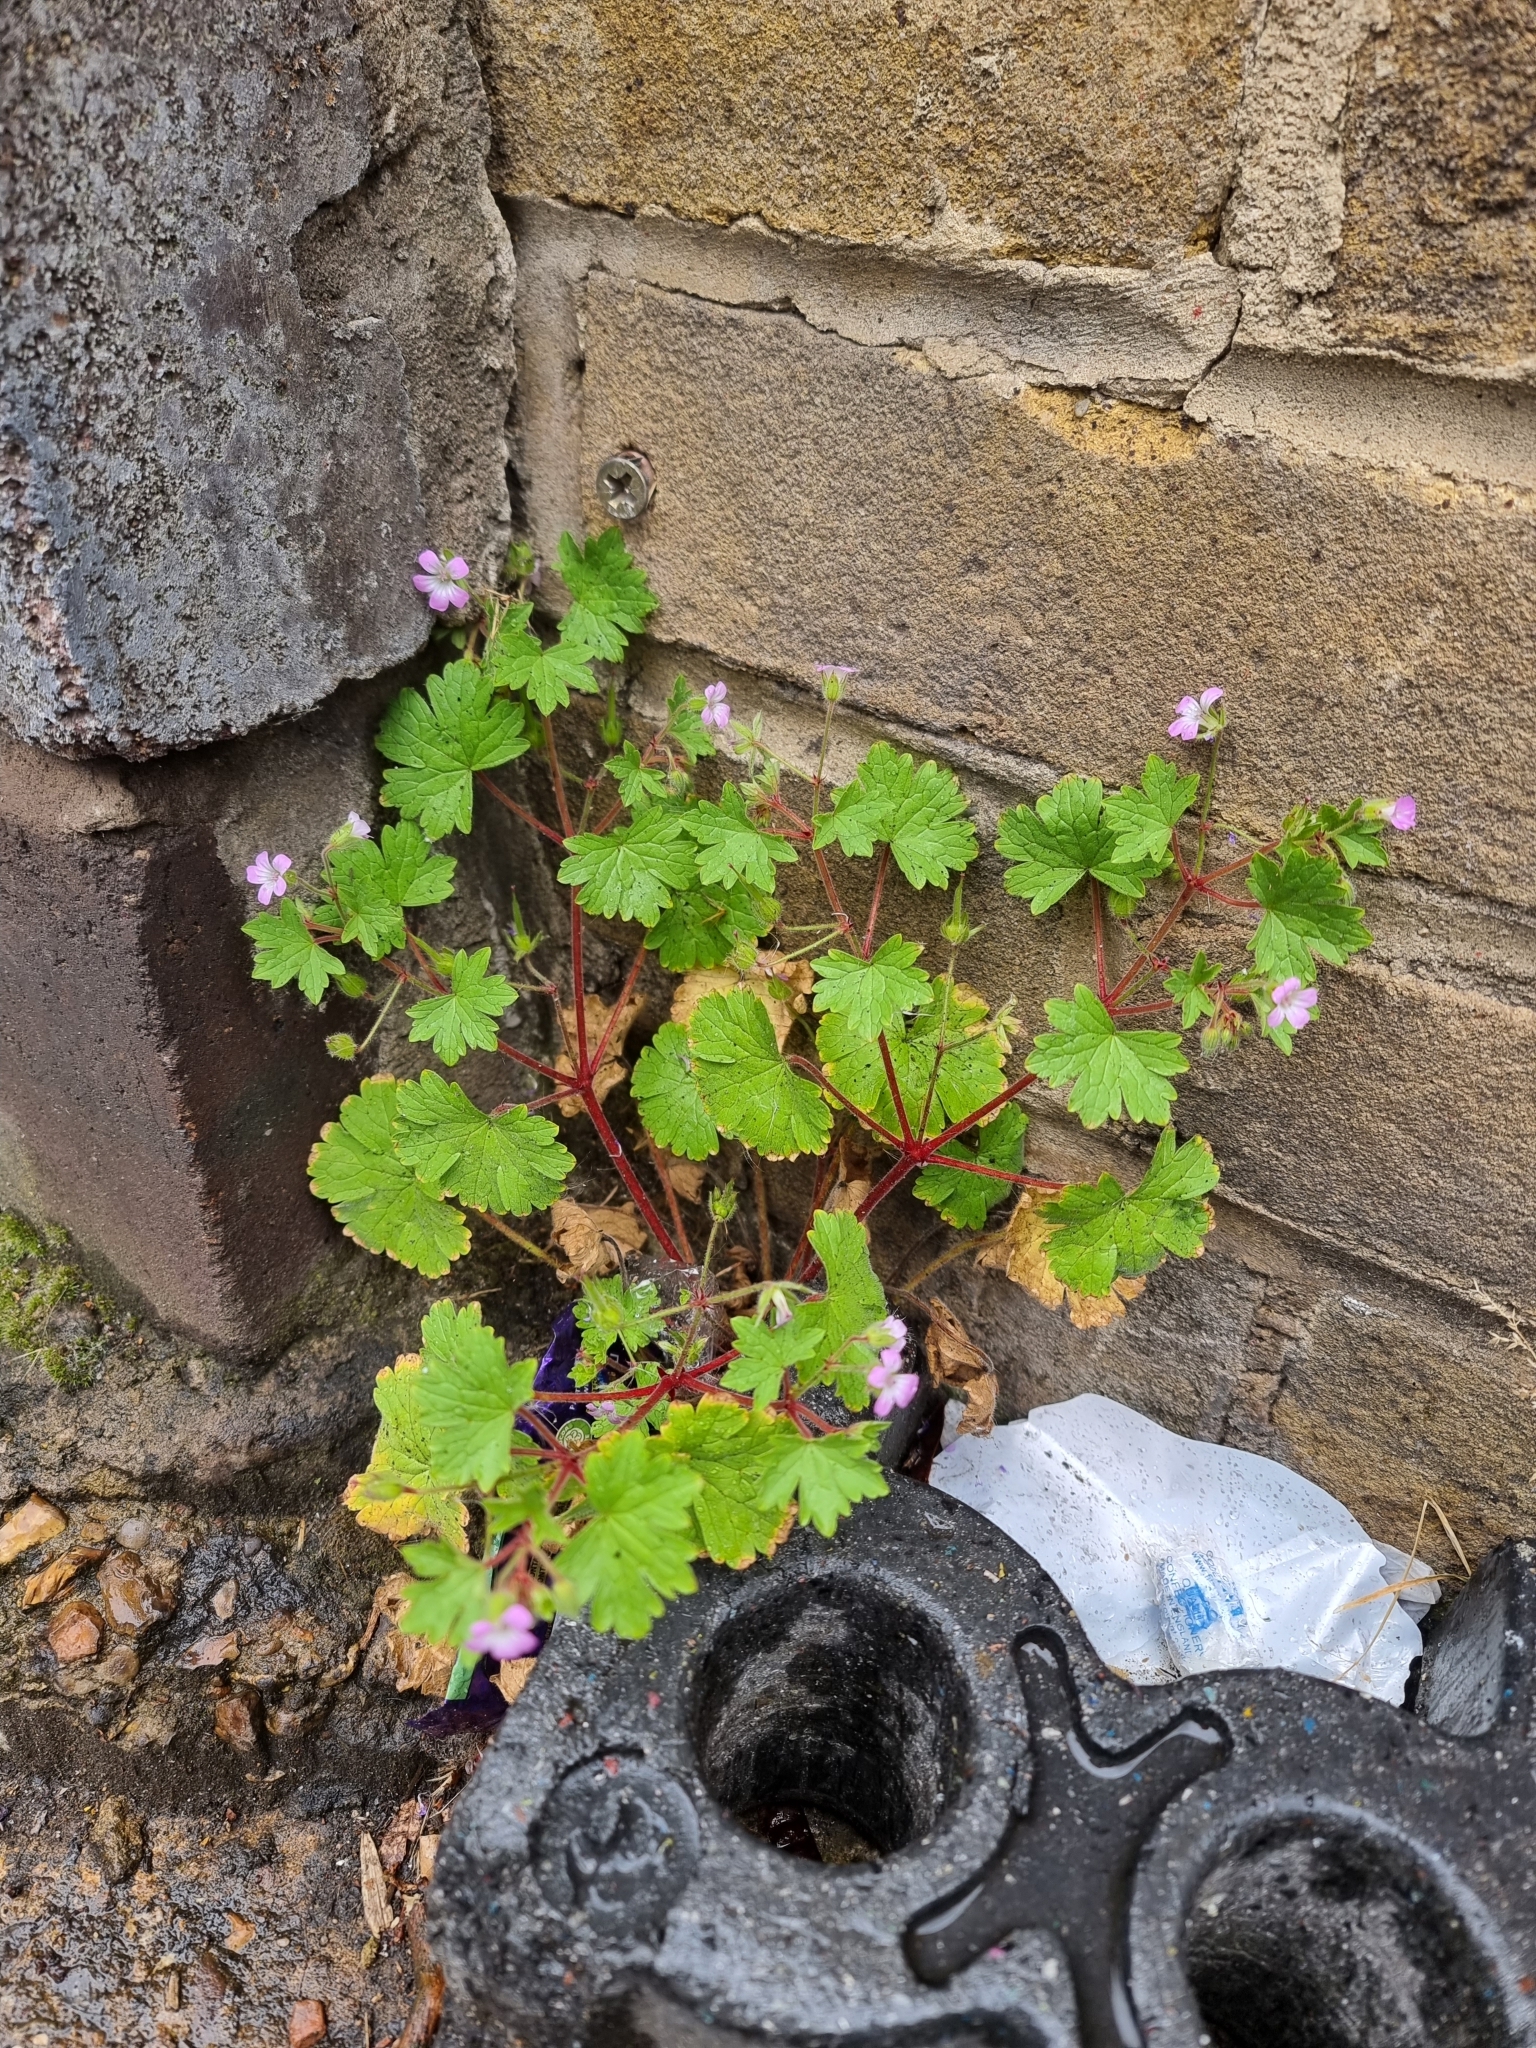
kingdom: Plantae
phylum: Tracheophyta
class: Magnoliopsida
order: Geraniales
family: Geraniaceae
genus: Geranium
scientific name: Geranium rotundifolium
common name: Round-leaved crane's-bill
